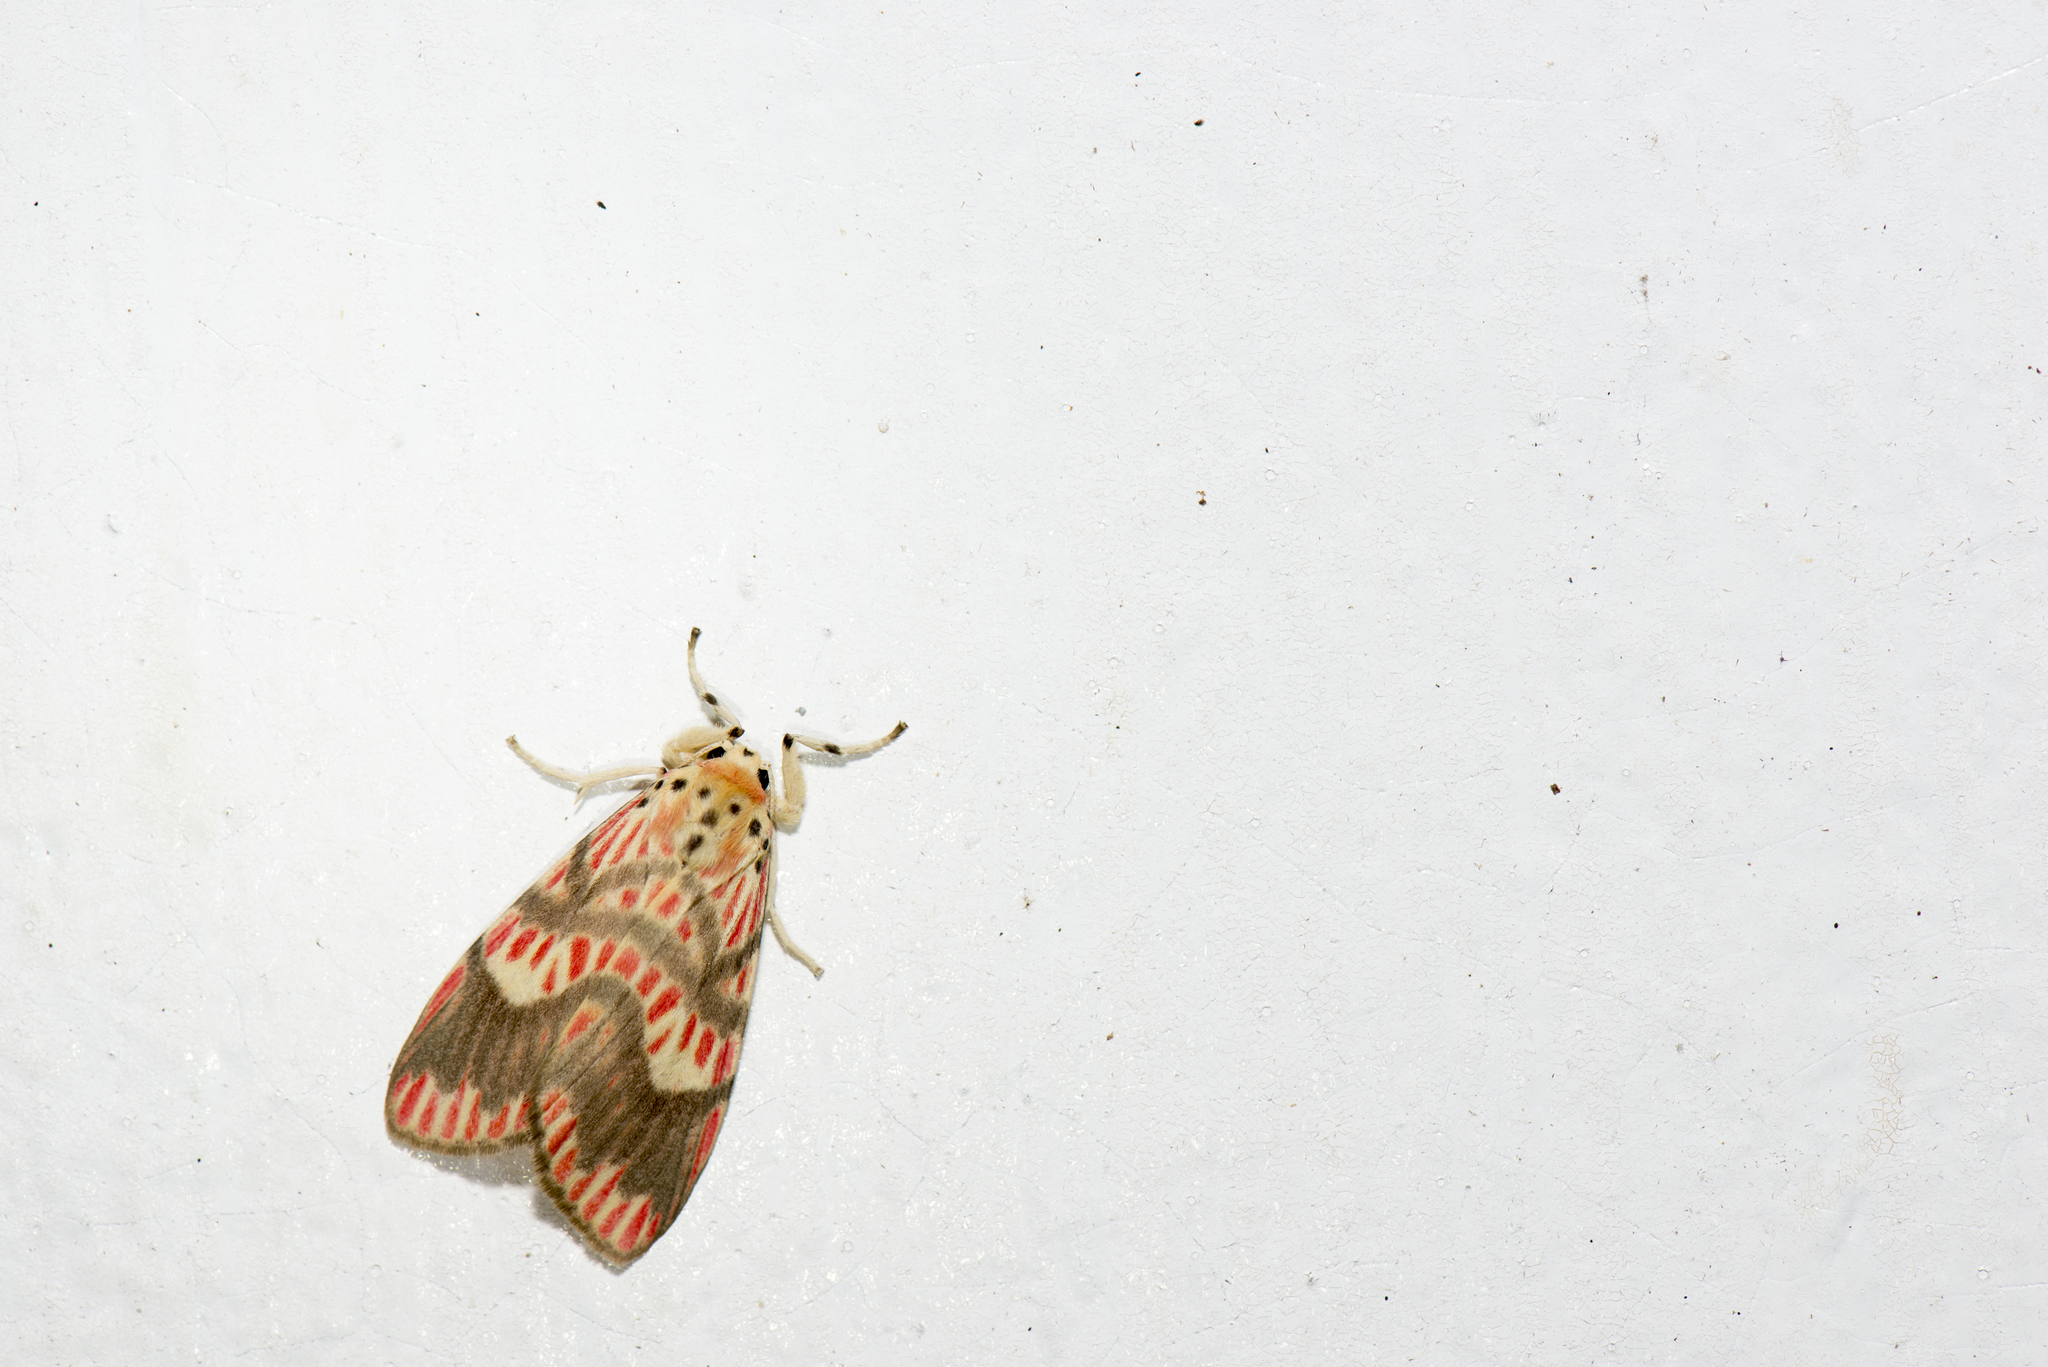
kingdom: Animalia
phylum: Arthropoda
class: Insecta
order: Lepidoptera
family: Erebidae
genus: Barsine
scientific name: Barsine fuscozonata
